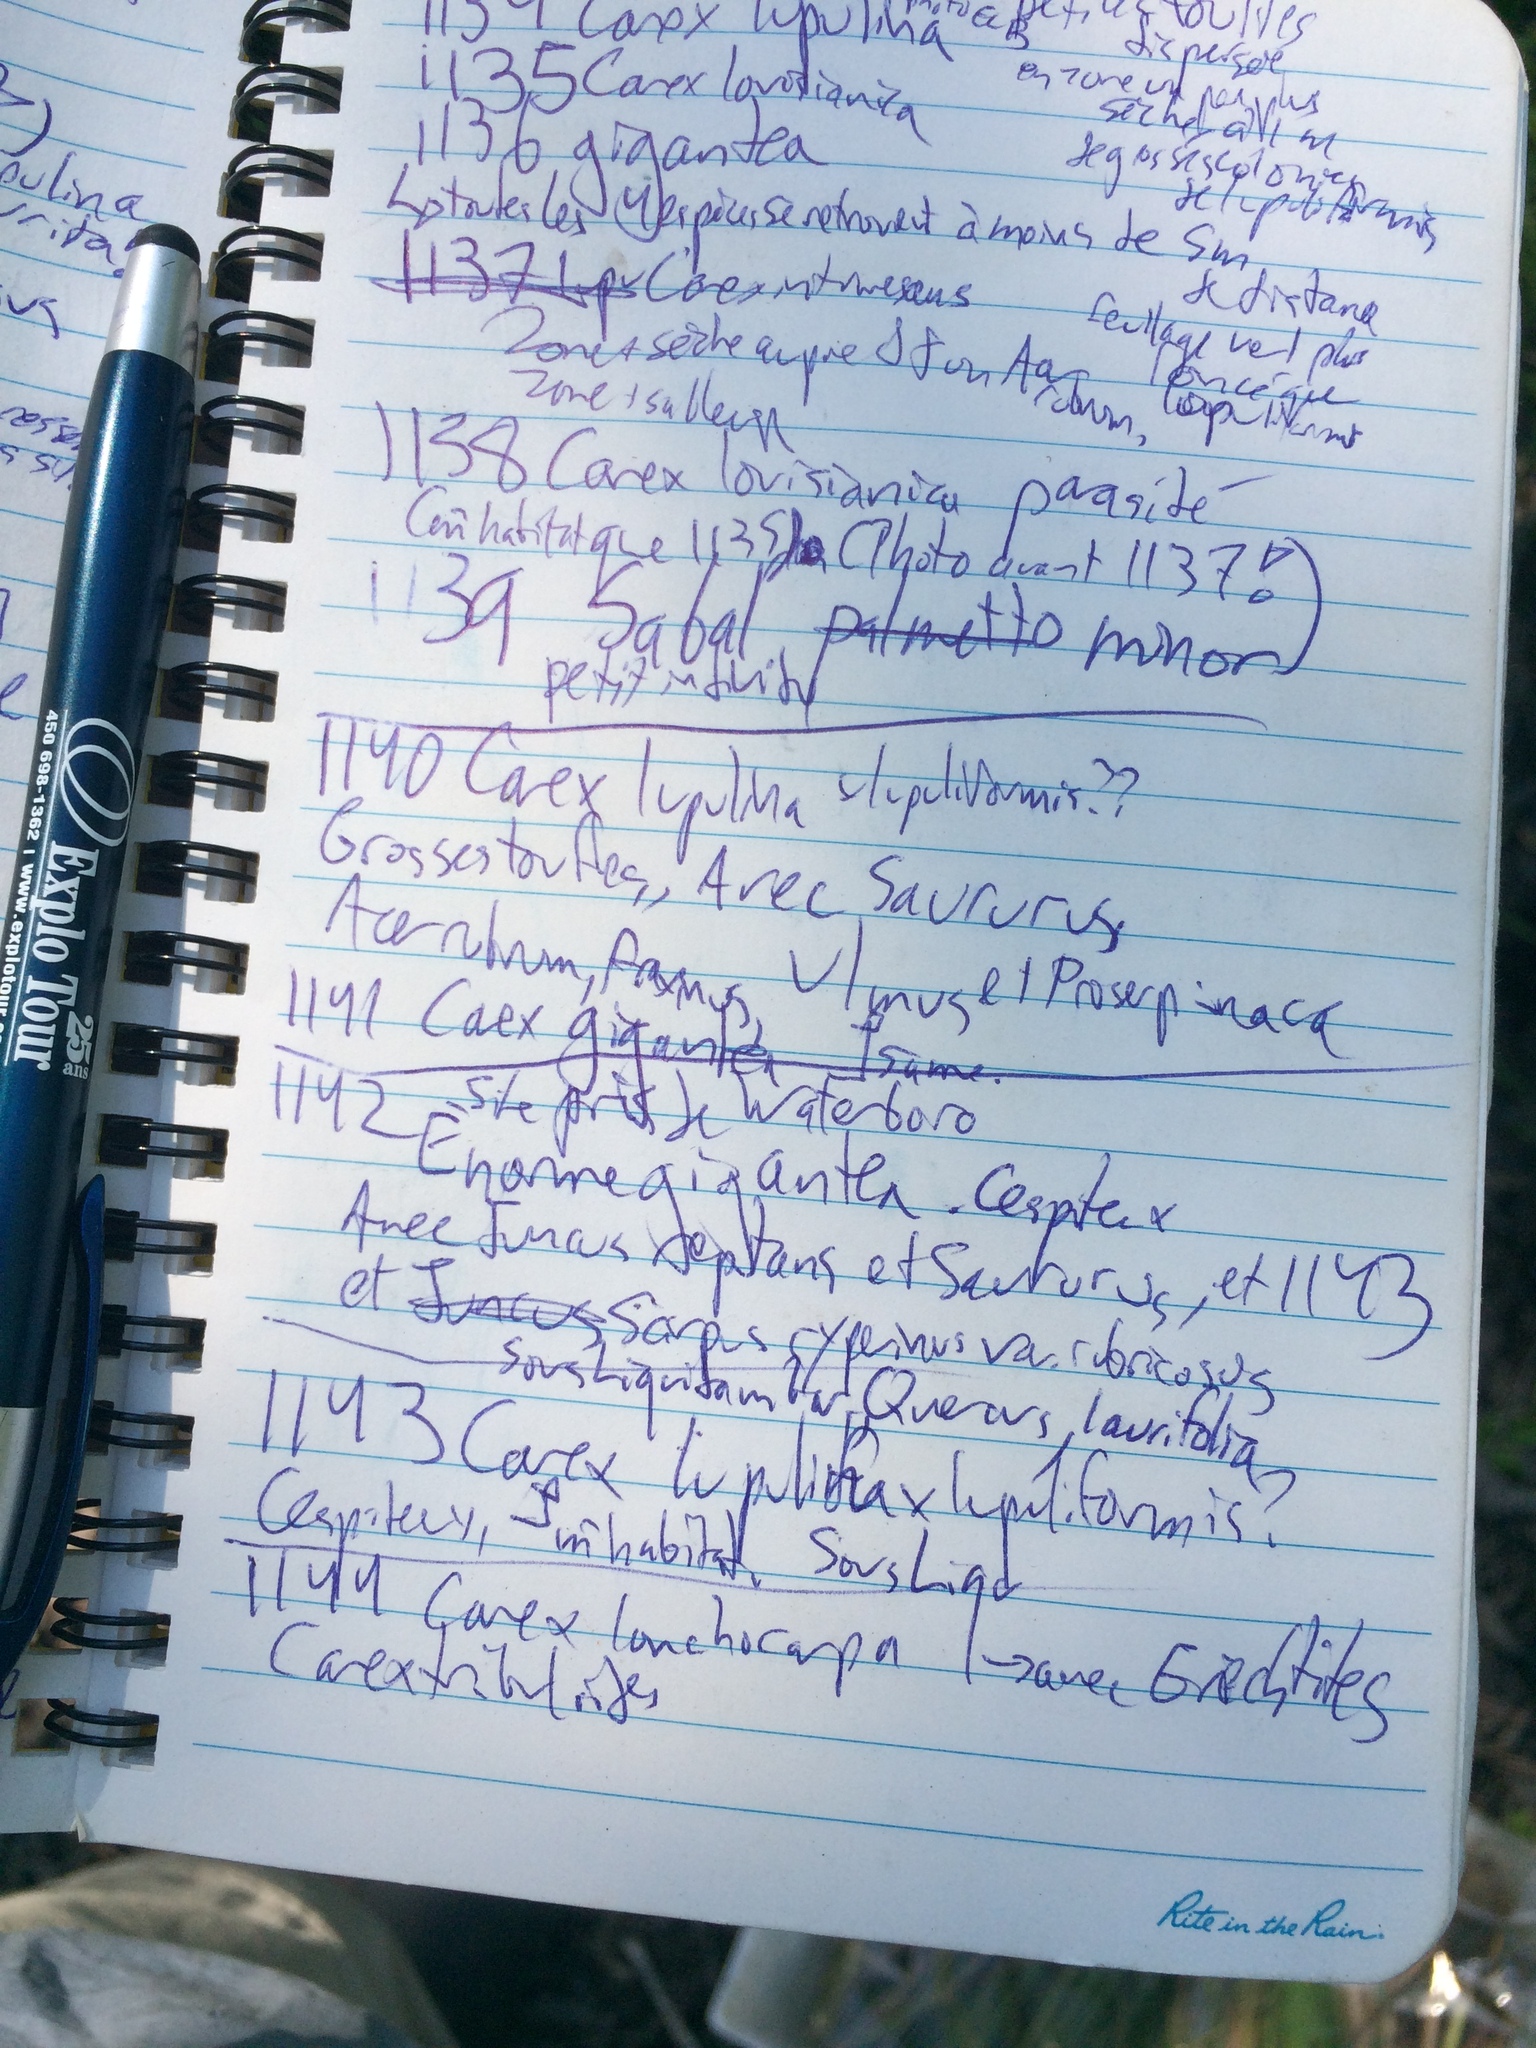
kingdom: Plantae
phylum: Tracheophyta
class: Liliopsida
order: Poales
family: Cyperaceae
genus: Carex
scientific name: Carex gigantea
